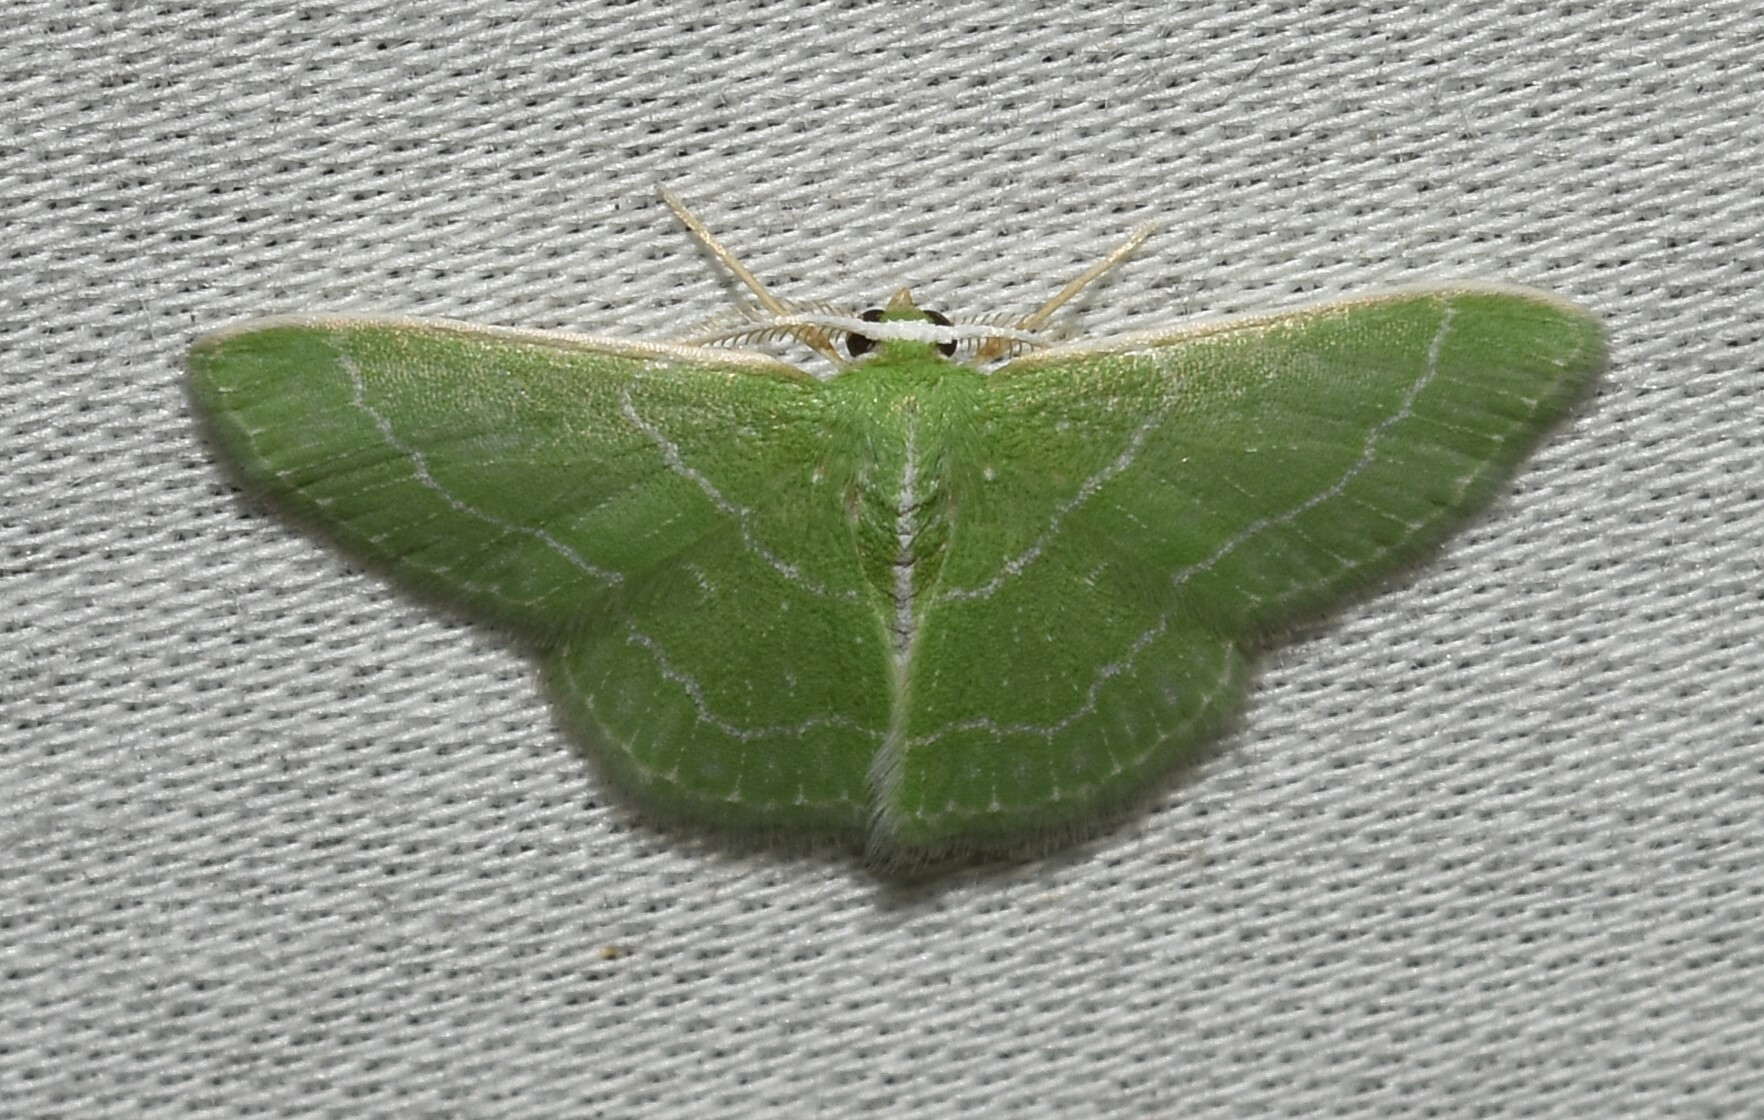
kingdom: Animalia
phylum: Arthropoda
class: Insecta
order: Lepidoptera
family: Geometridae
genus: Synchlora
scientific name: Synchlora aerata
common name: Wavy-lined emerald
